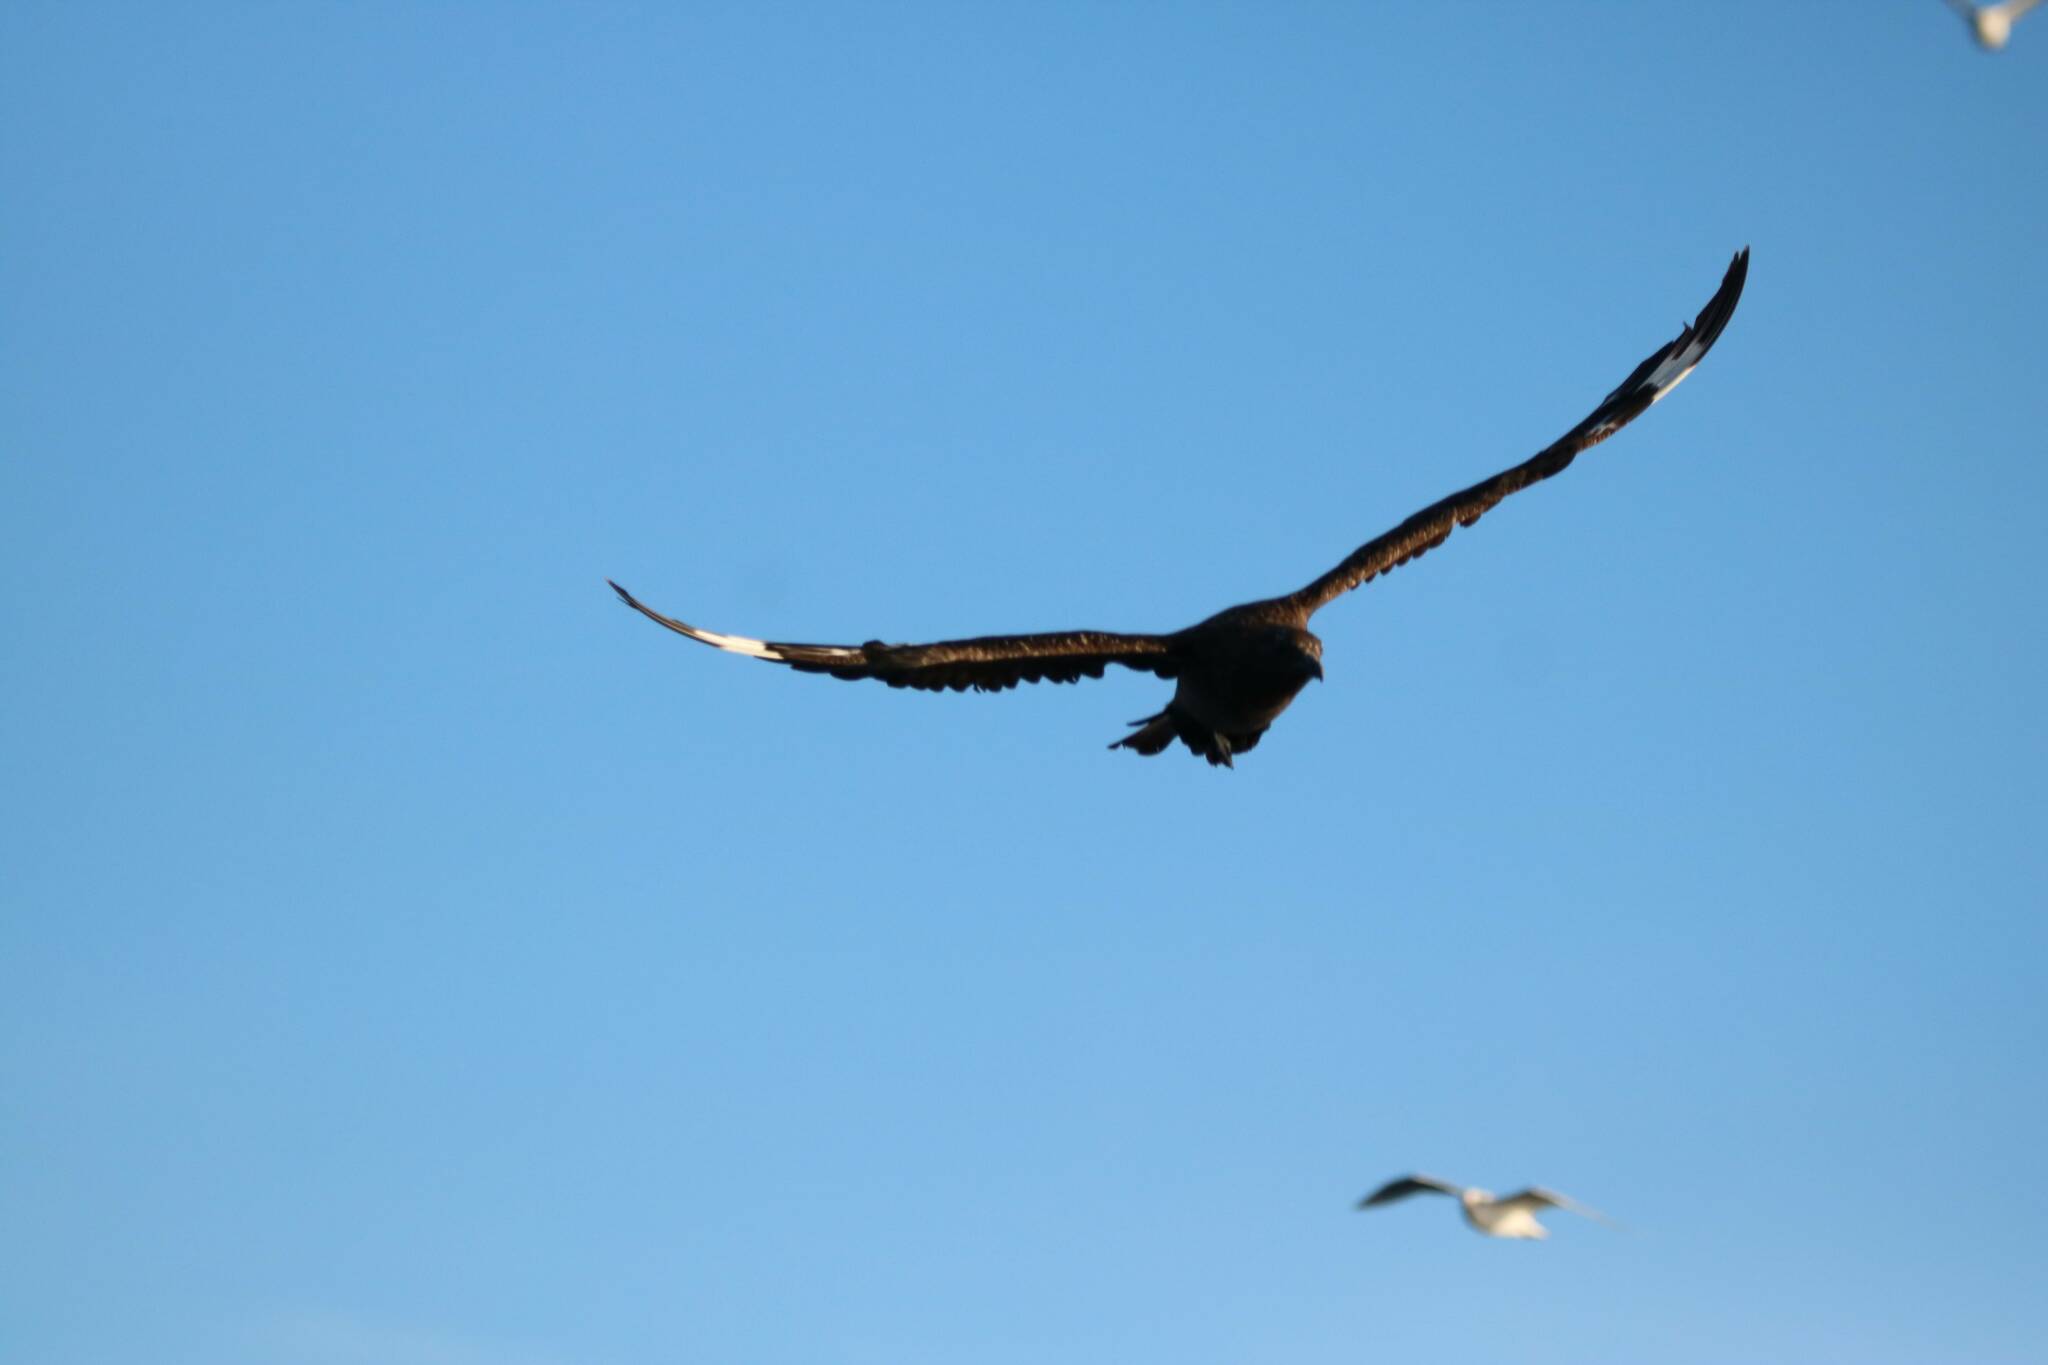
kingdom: Animalia
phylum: Chordata
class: Aves
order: Charadriiformes
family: Stercorariidae
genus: Stercorarius
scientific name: Stercorarius skua
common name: Great skua
